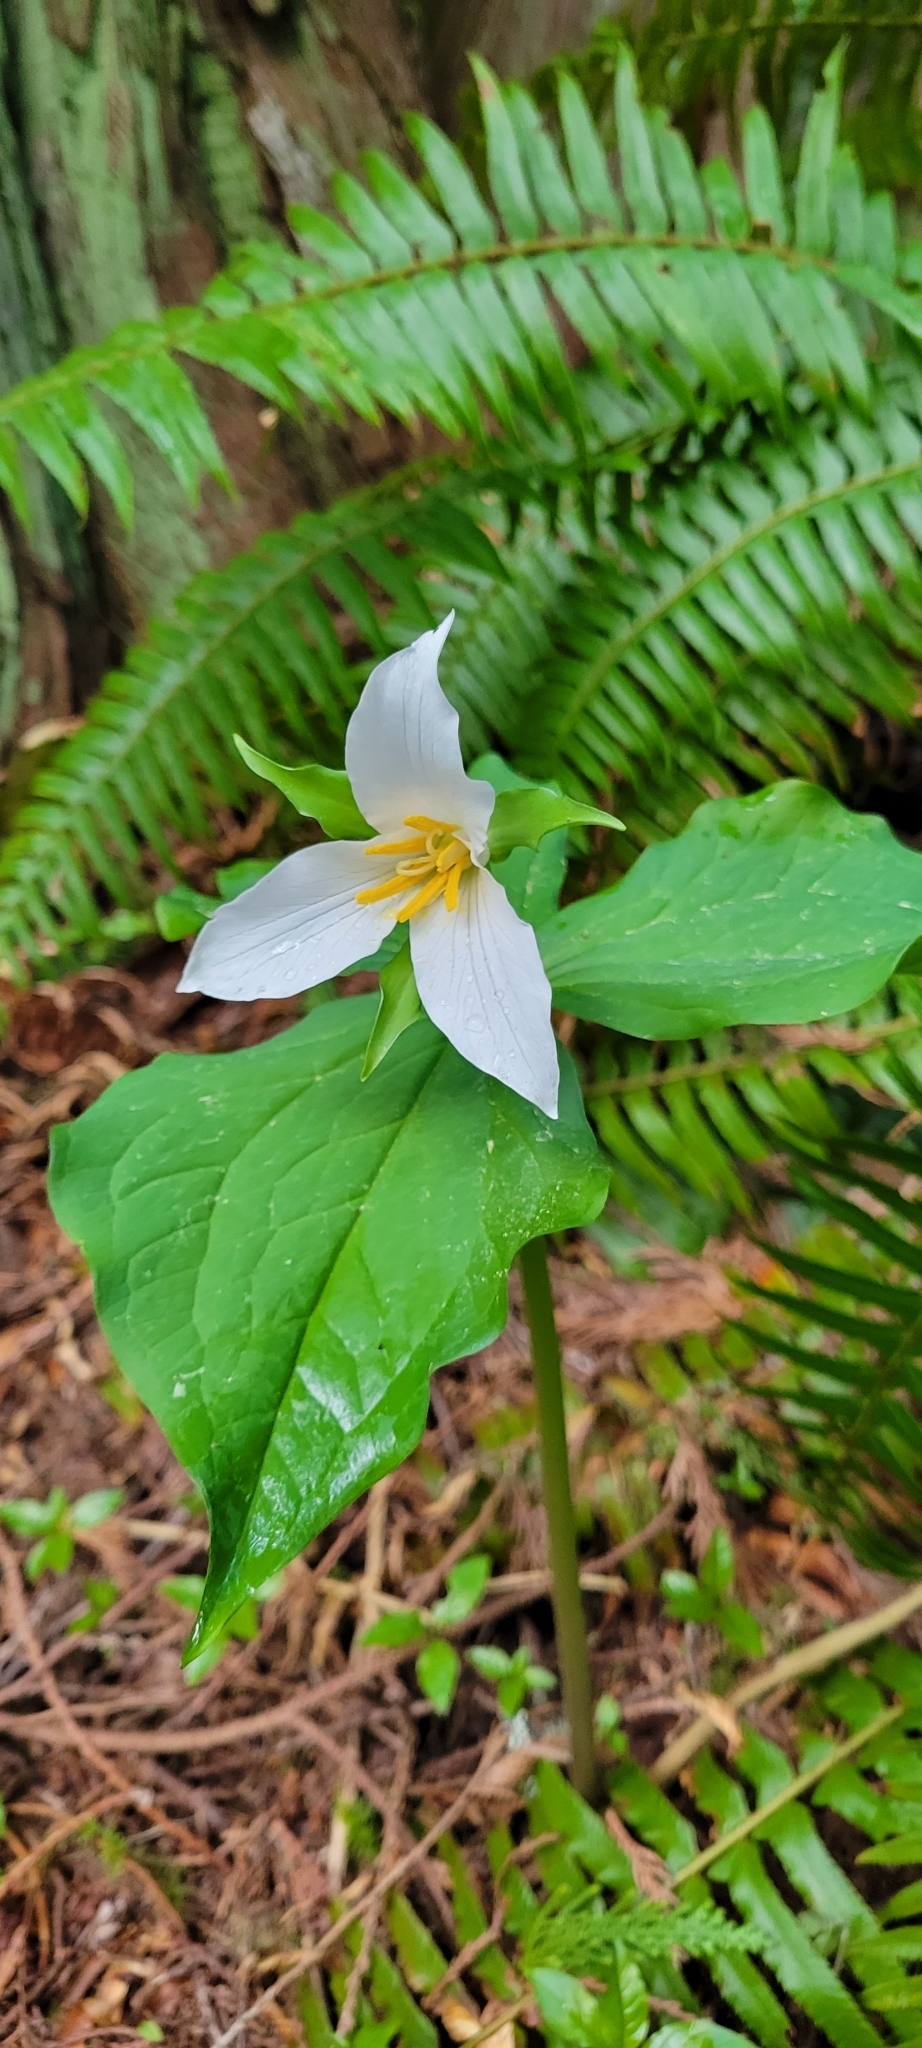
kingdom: Plantae
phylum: Tracheophyta
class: Liliopsida
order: Liliales
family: Melanthiaceae
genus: Trillium
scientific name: Trillium ovatum
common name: Pacific trillium
